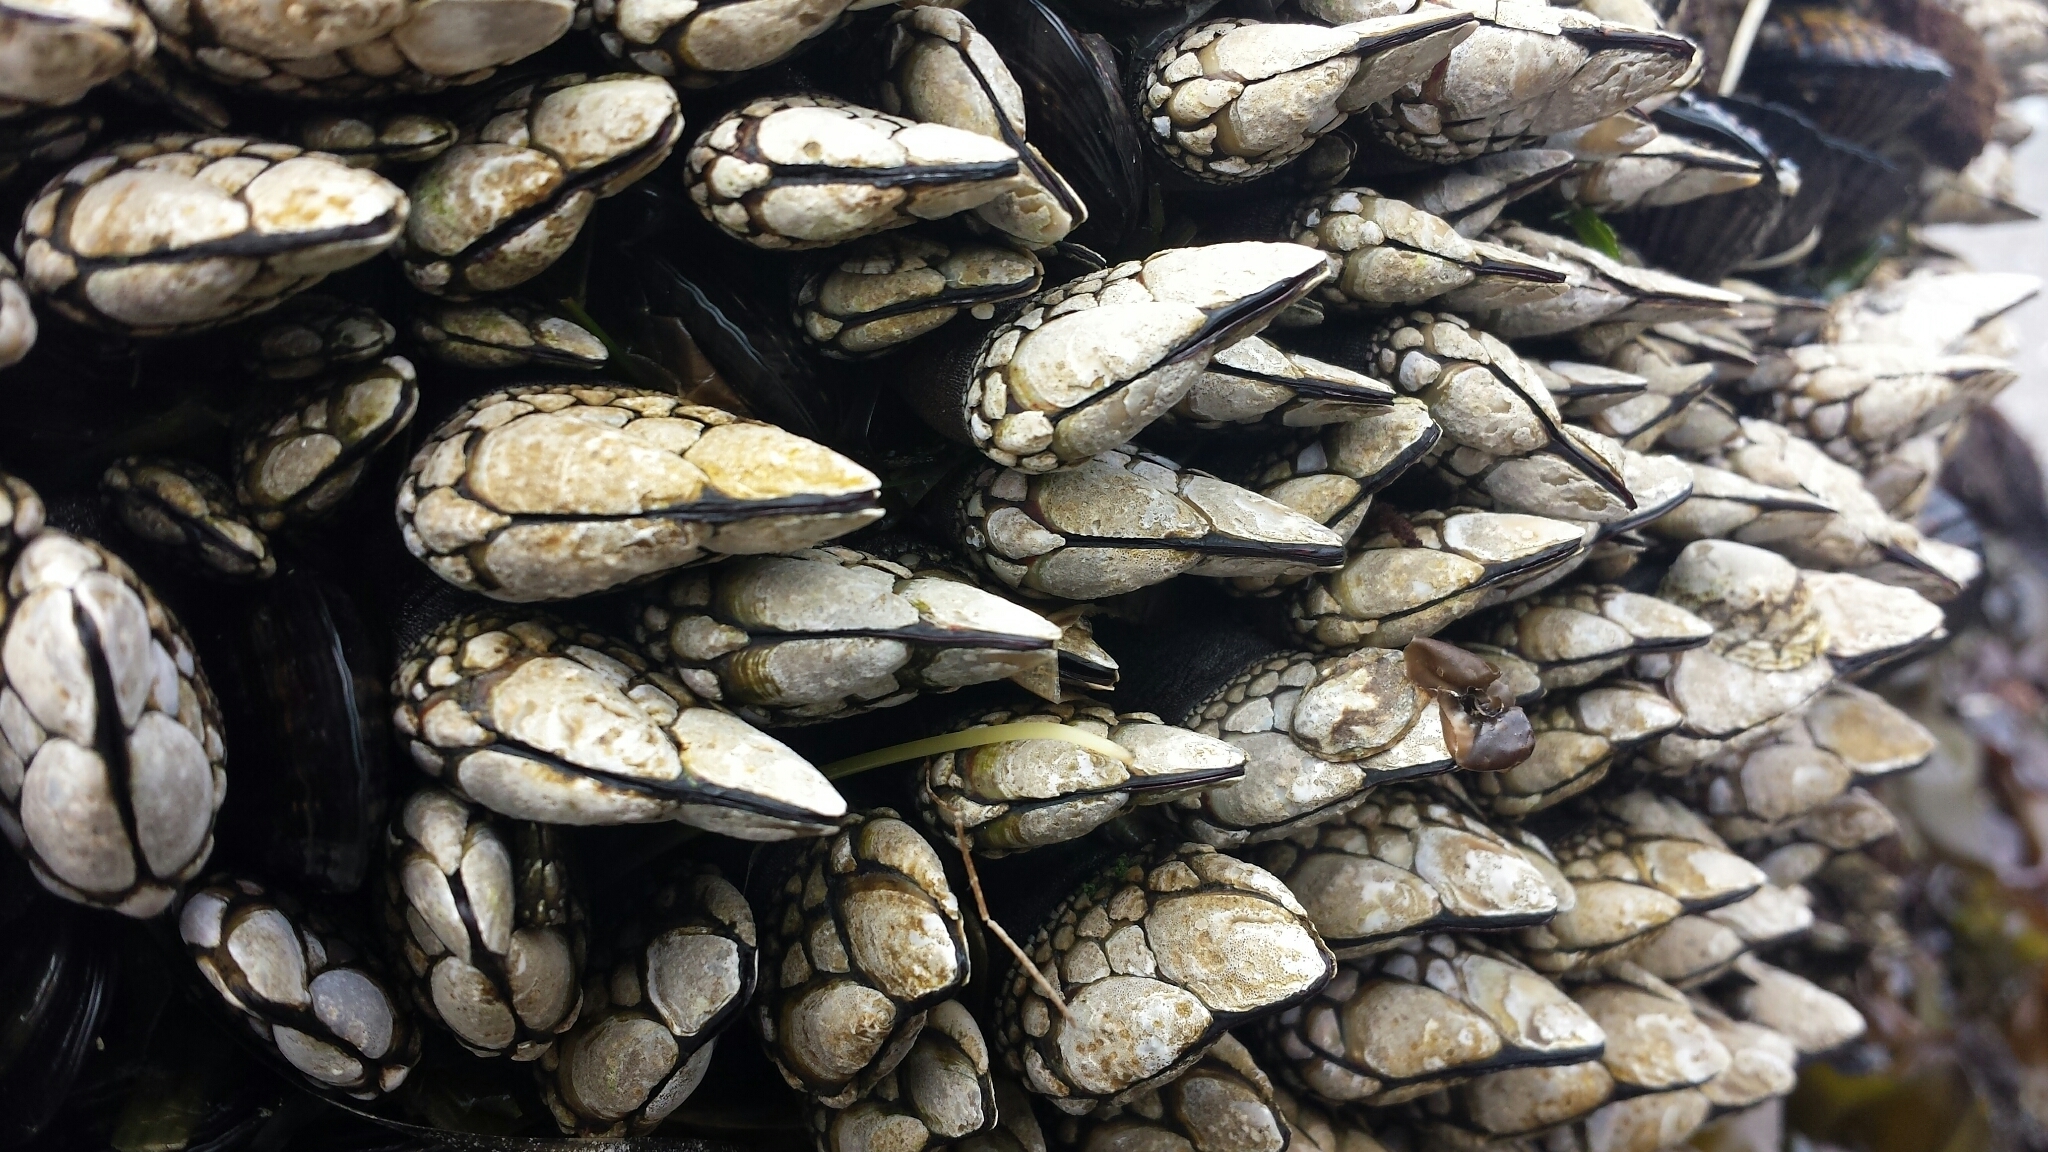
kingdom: Animalia
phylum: Arthropoda
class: Maxillopoda
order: Pedunculata
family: Pollicipedidae
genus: Pollicipes
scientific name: Pollicipes polymerus
